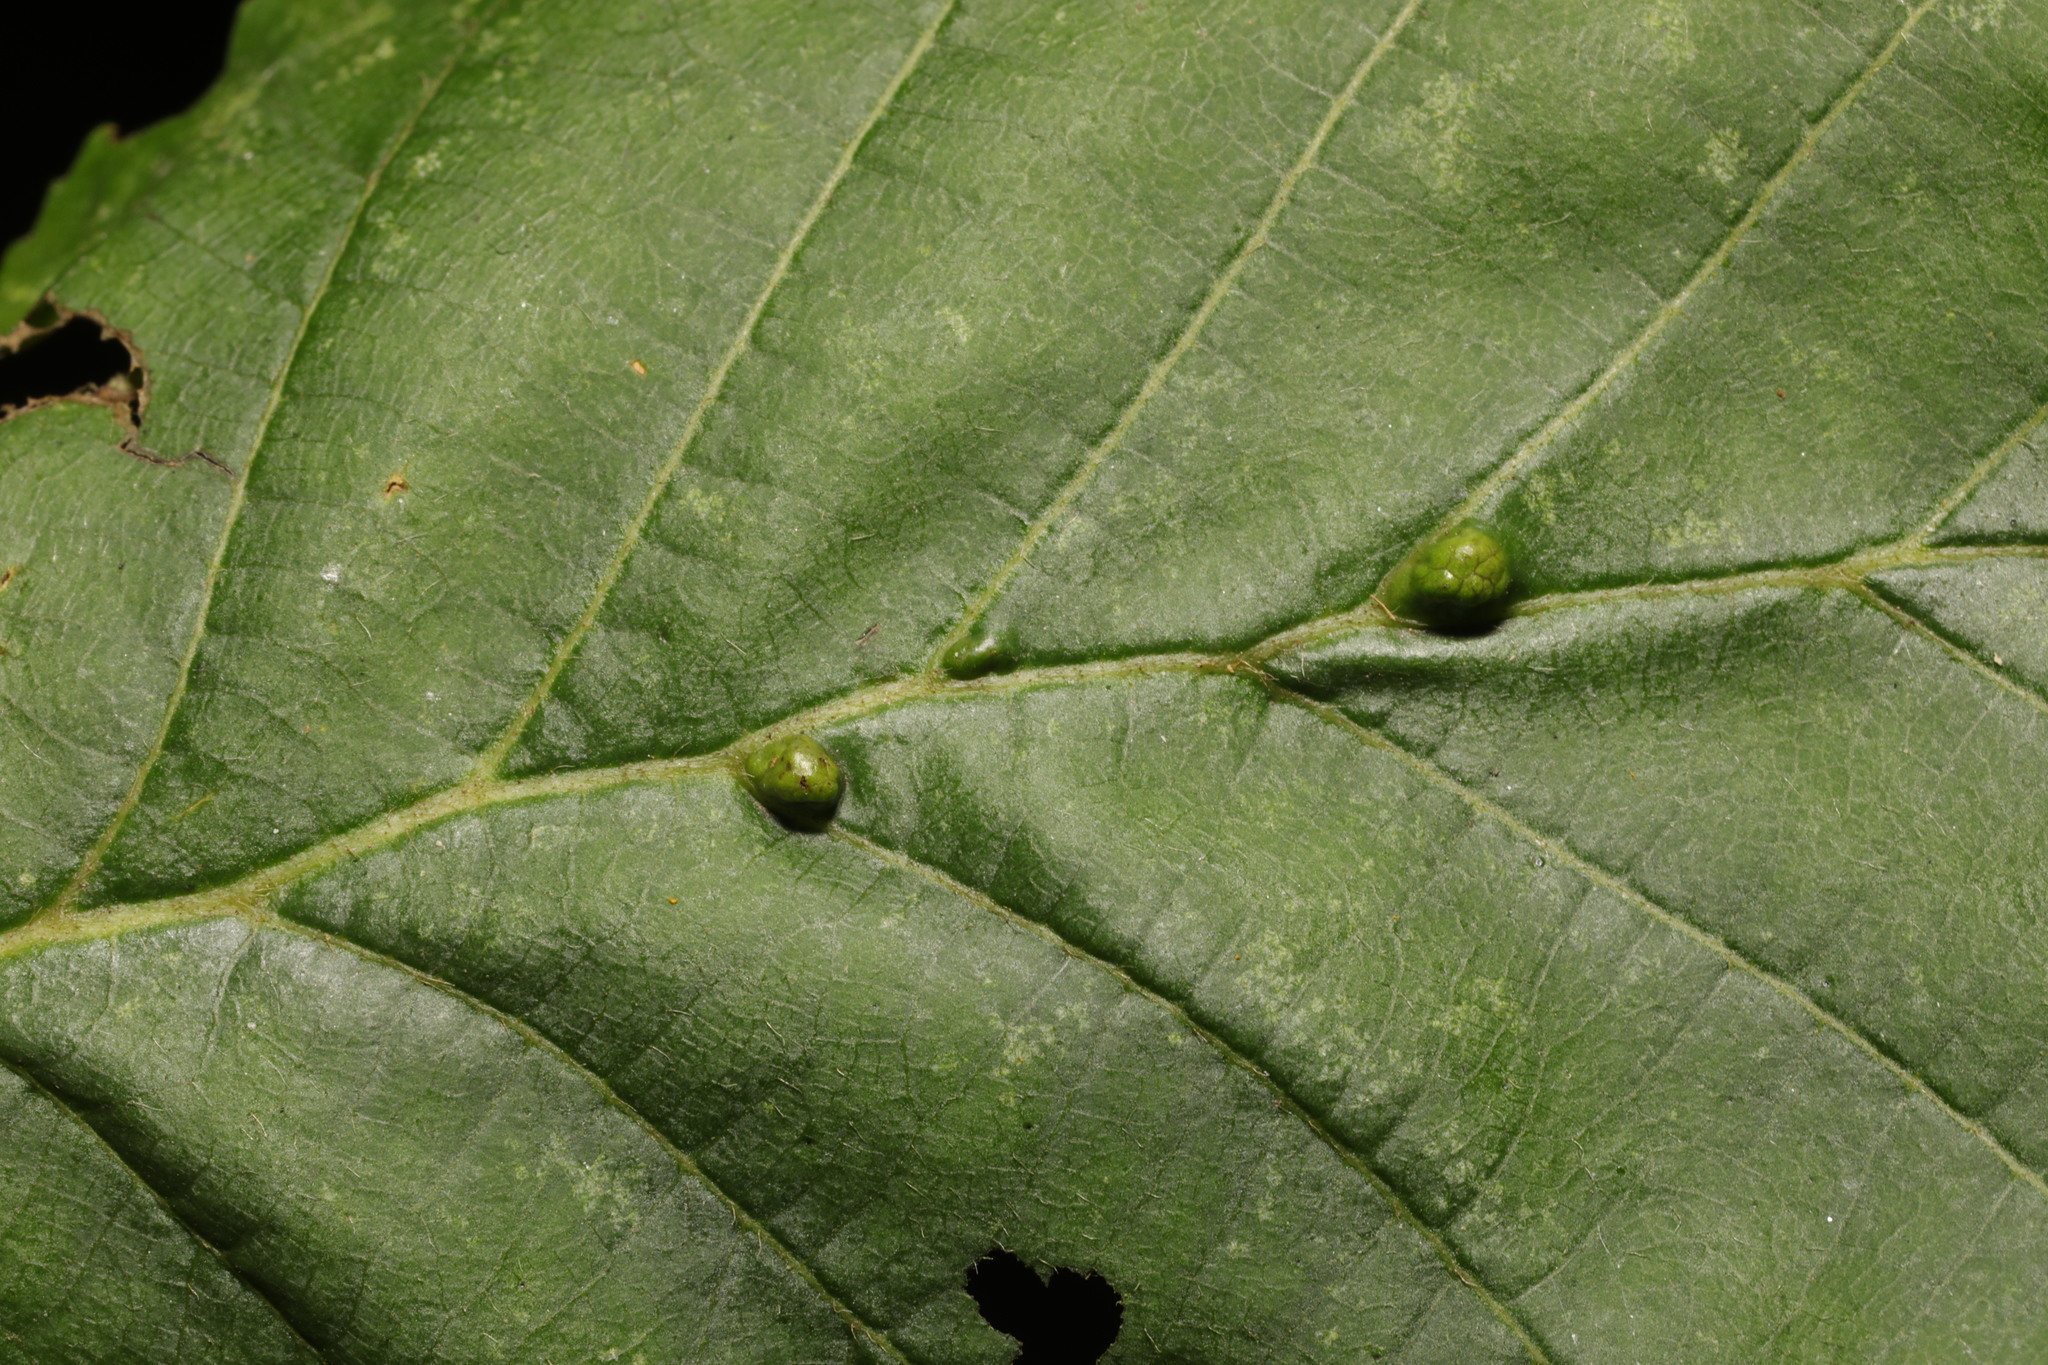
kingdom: Animalia
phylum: Arthropoda
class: Arachnida
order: Trombidiformes
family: Eriophyidae
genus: Aceria
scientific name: Aceria nalepai
